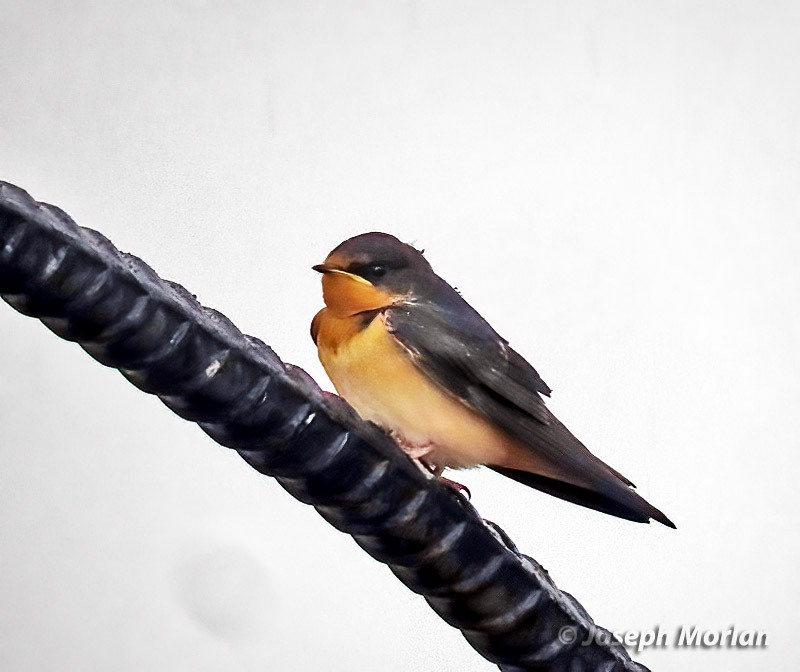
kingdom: Animalia
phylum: Chordata
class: Aves
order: Passeriformes
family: Hirundinidae
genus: Hirundo
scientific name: Hirundo rustica
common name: Barn swallow
